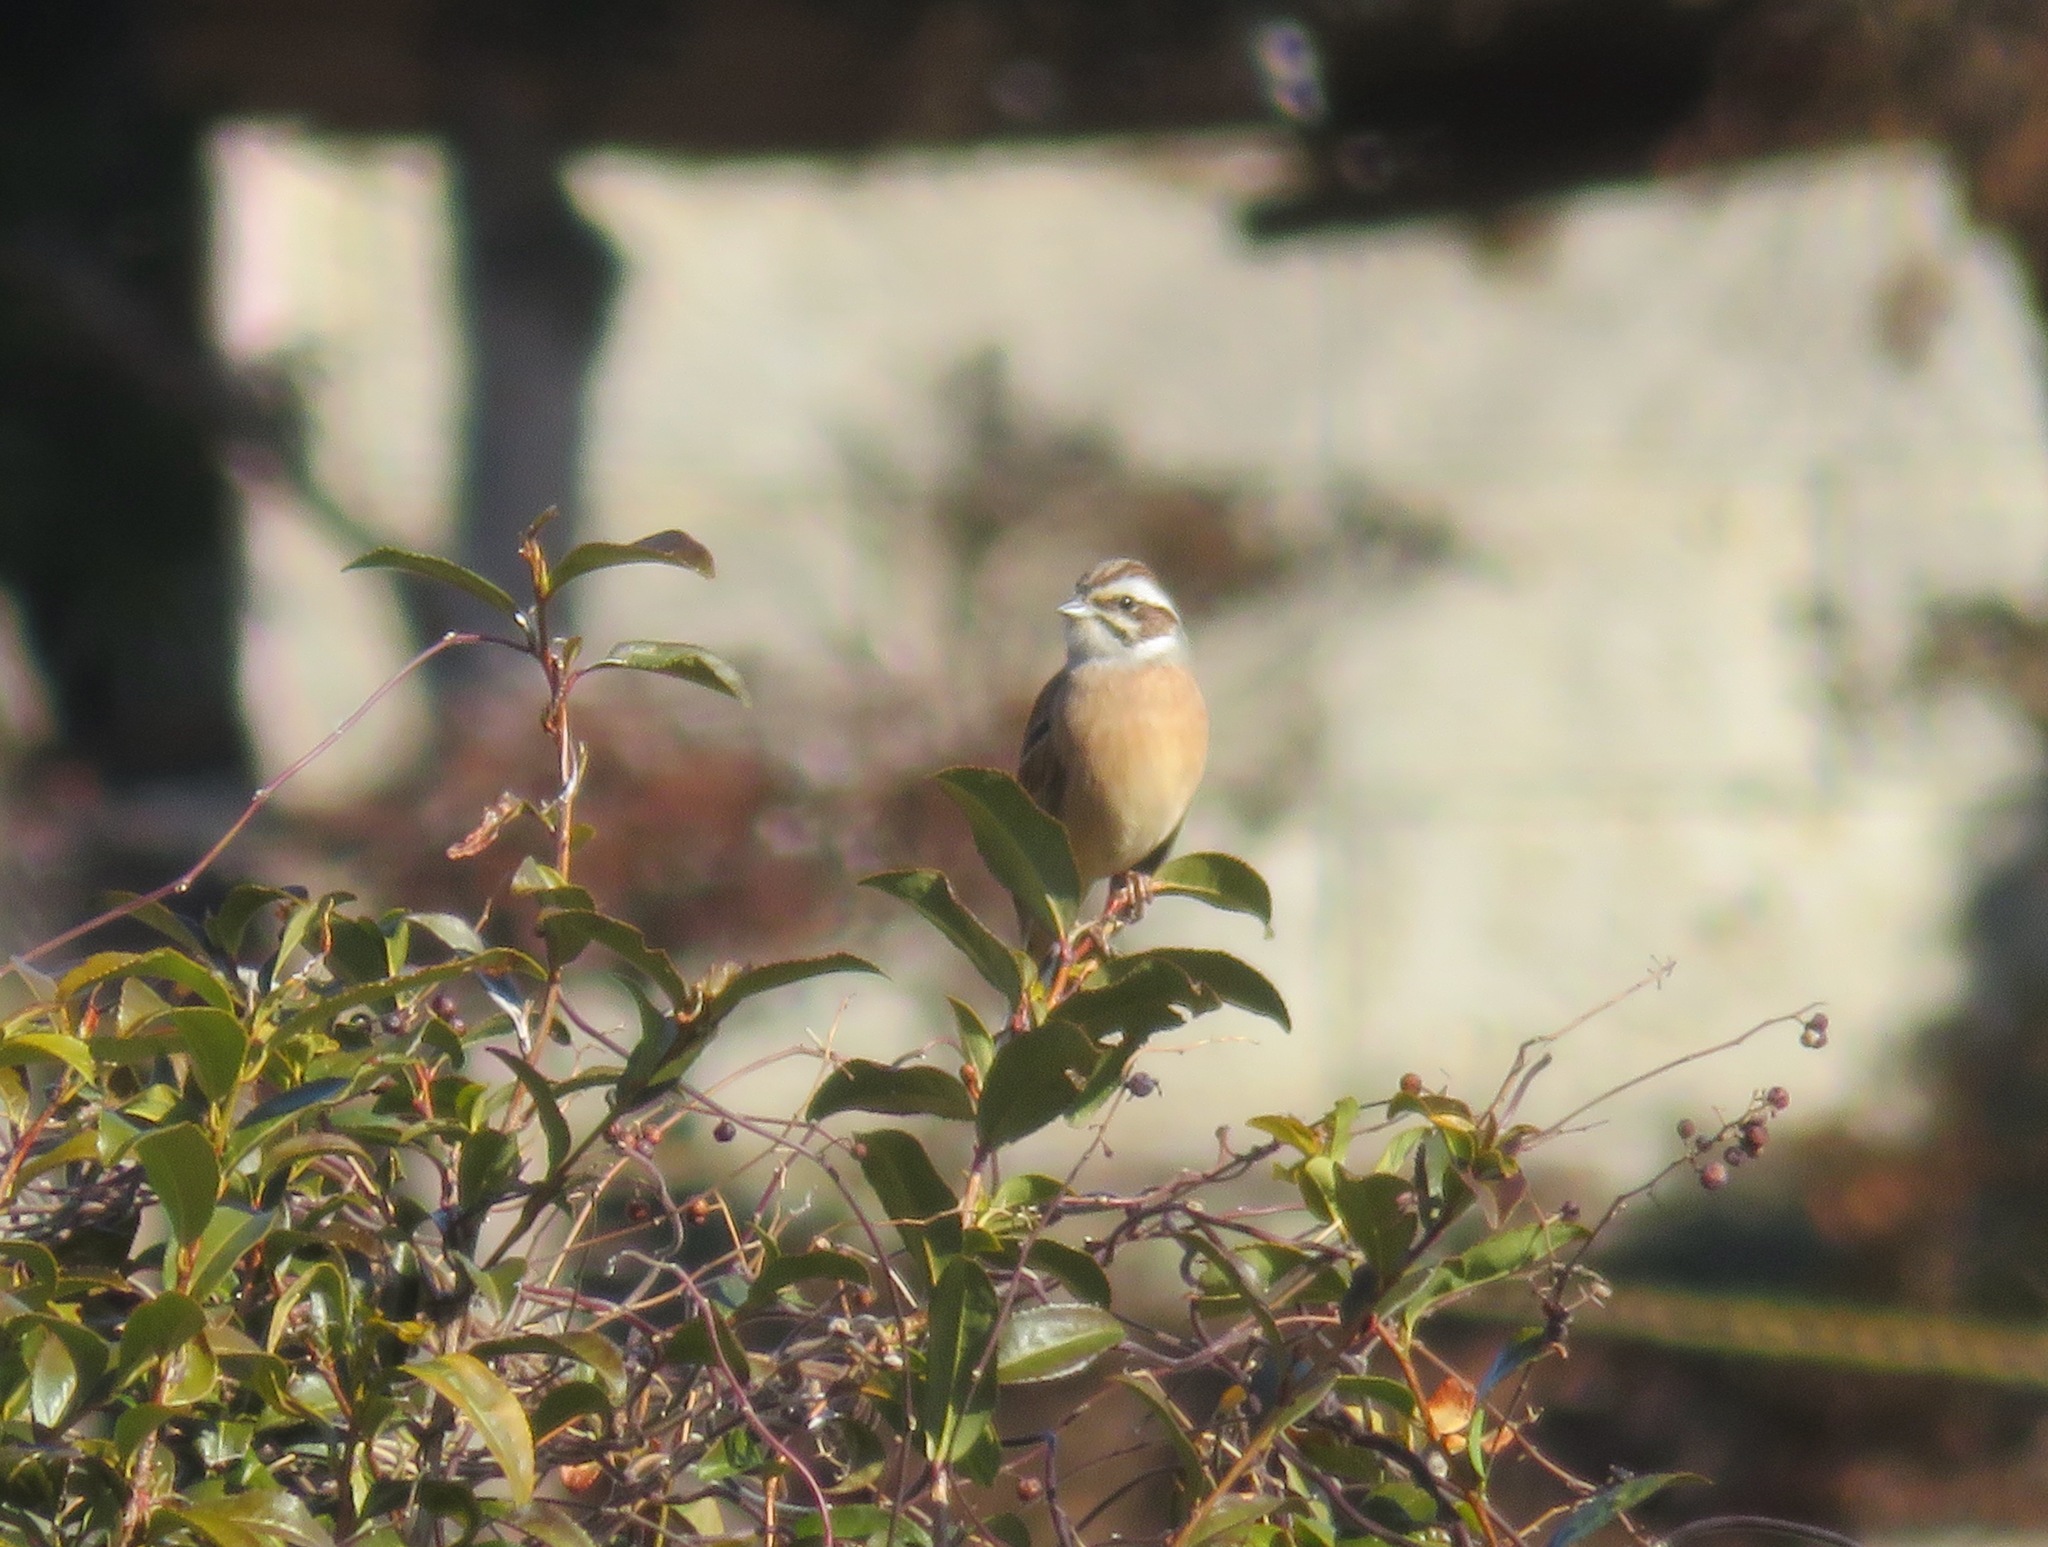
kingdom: Animalia
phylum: Chordata
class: Aves
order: Passeriformes
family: Emberizidae
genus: Emberiza
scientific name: Emberiza cioides
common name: Meadow bunting
